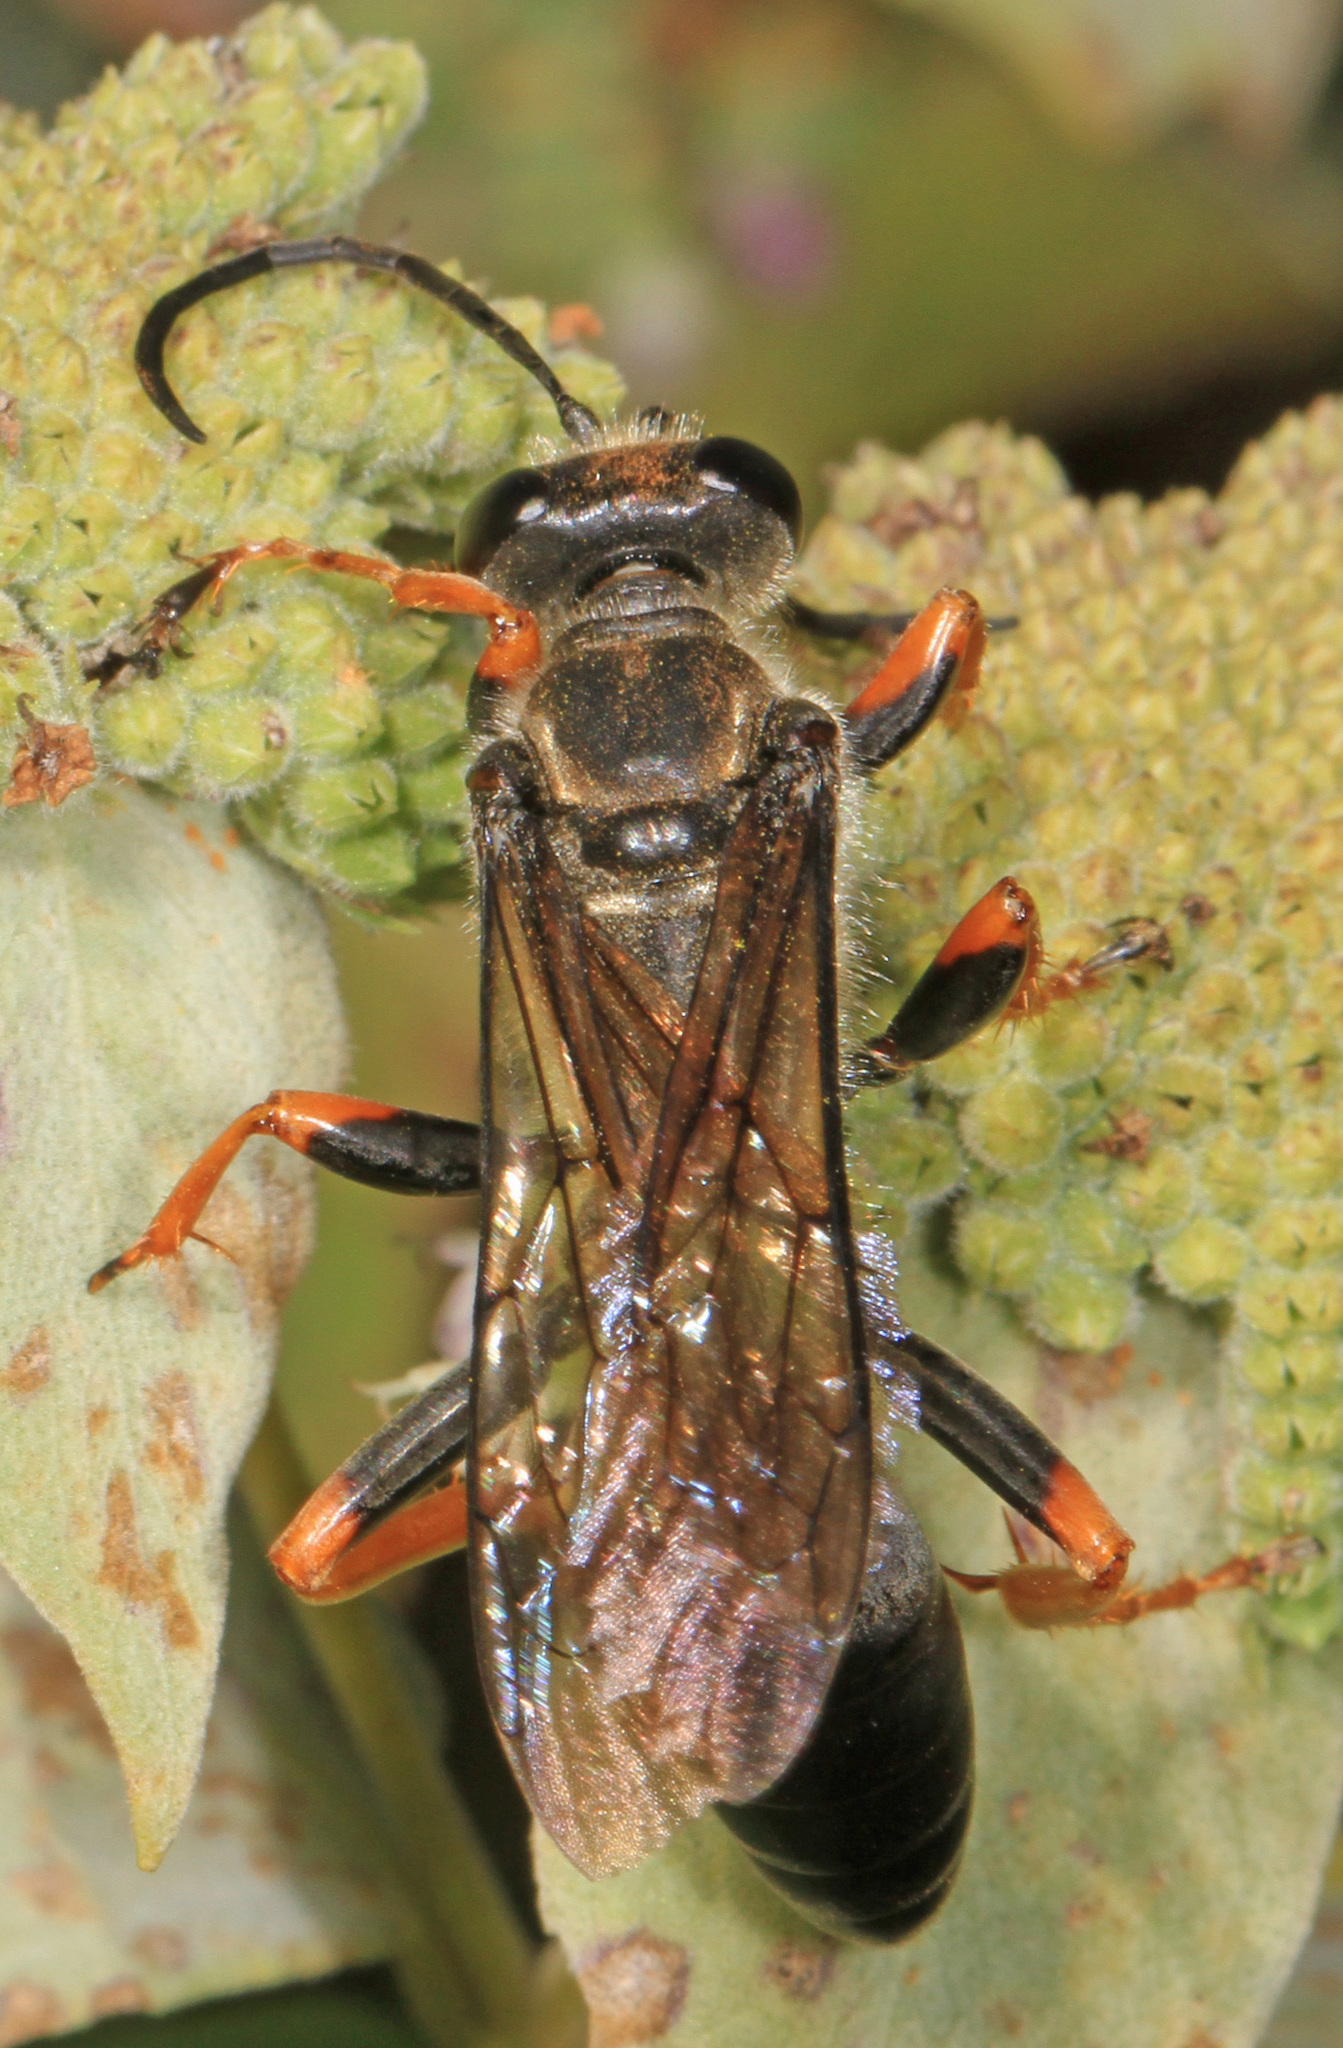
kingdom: Animalia
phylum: Arthropoda
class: Insecta
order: Hymenoptera
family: Sphecidae
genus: Sphex
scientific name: Sphex nudus
